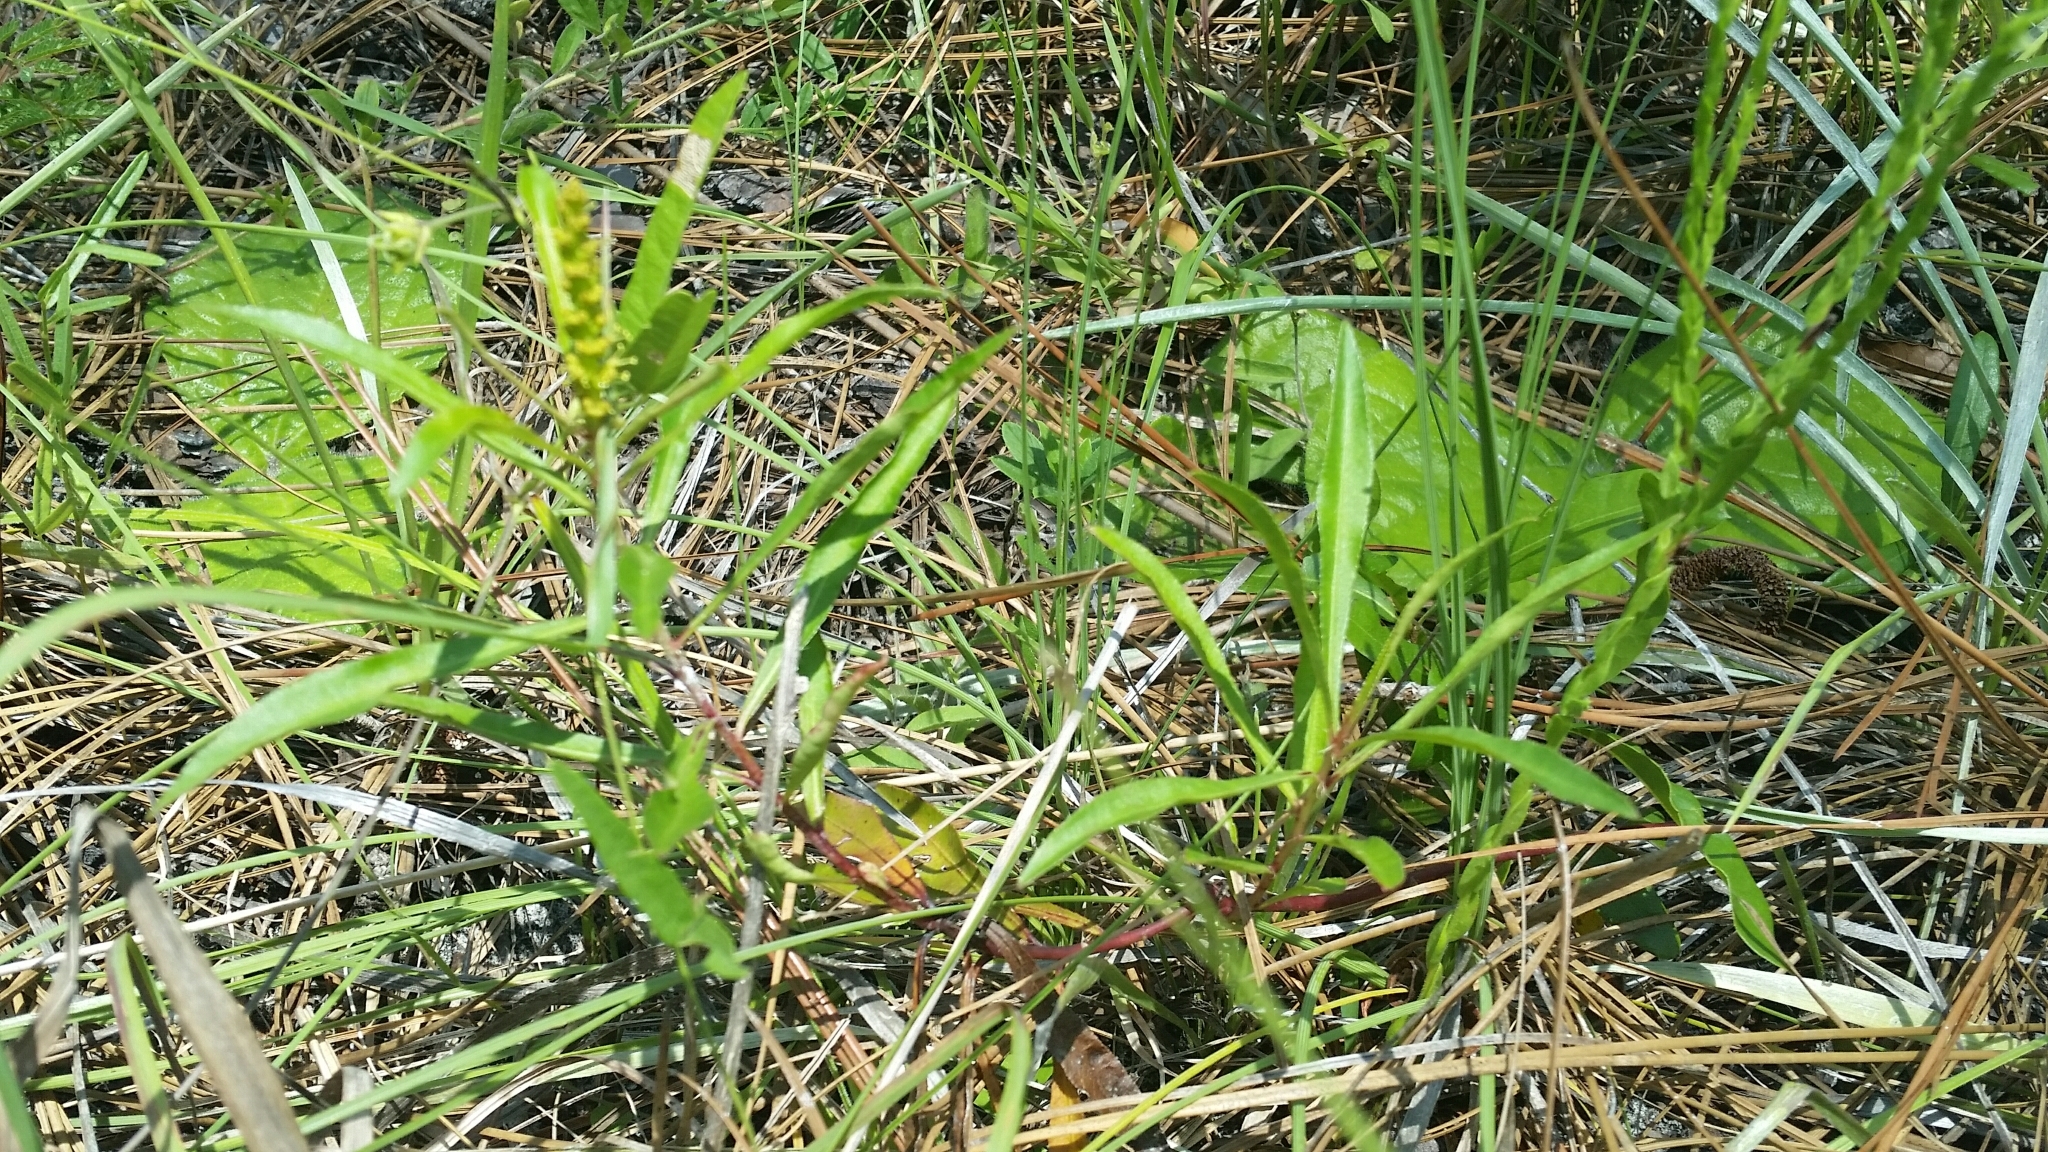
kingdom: Plantae
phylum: Tracheophyta
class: Magnoliopsida
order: Malpighiales
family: Euphorbiaceae
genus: Stillingia
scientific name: Stillingia sylvatica
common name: Queen's-delight
